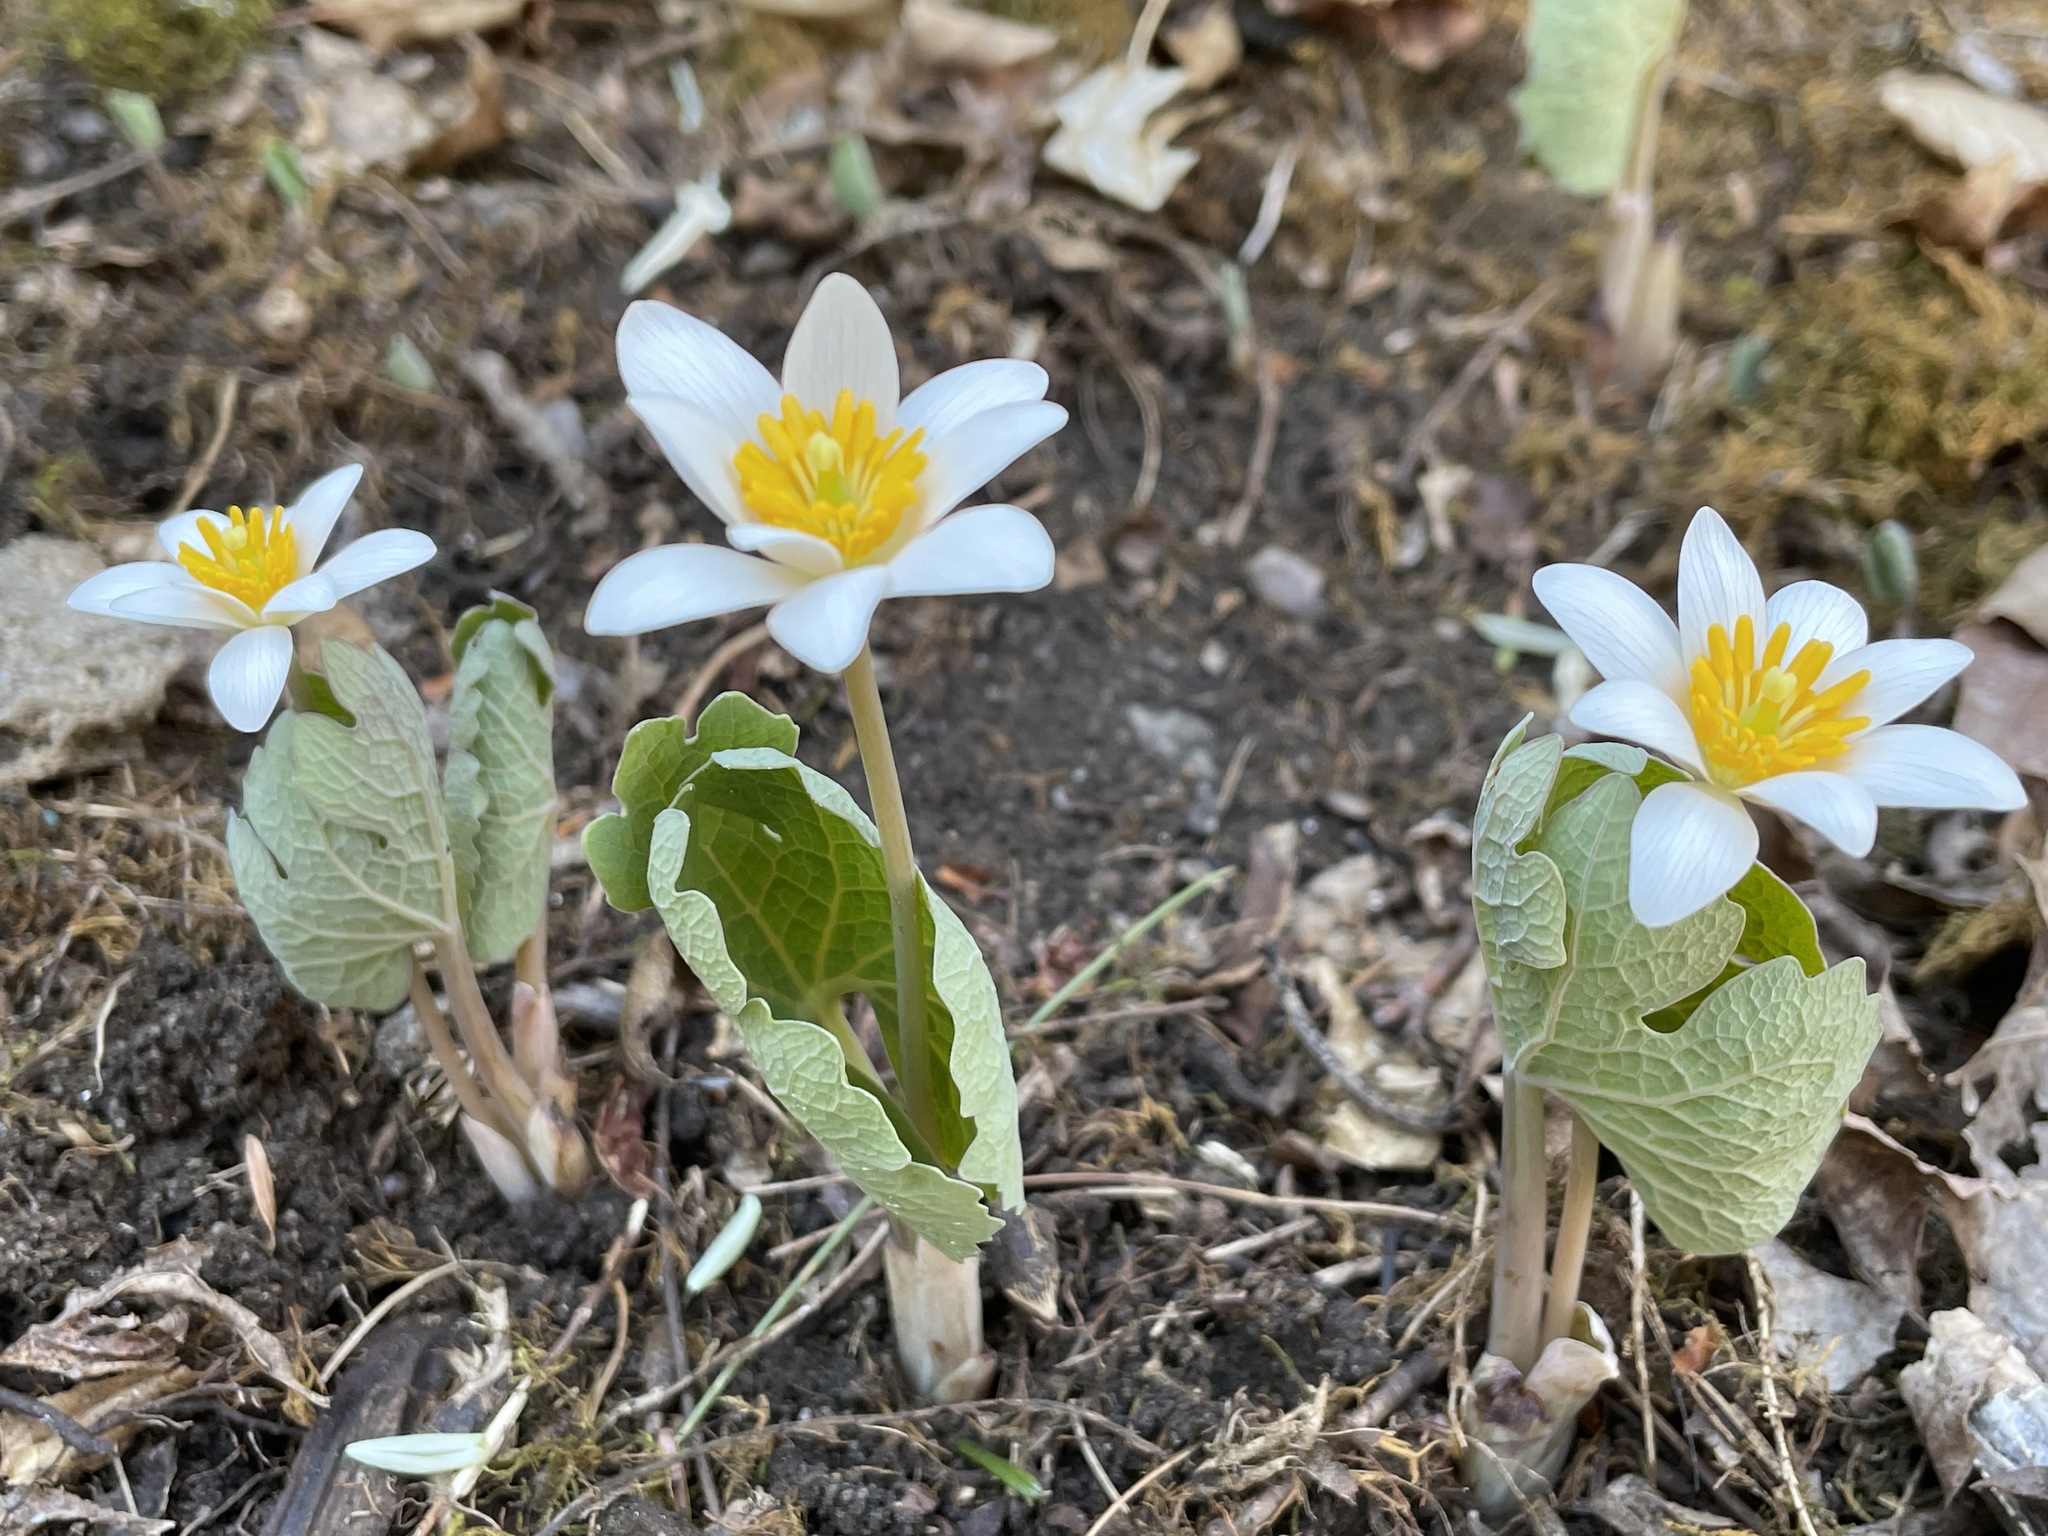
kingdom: Plantae
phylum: Tracheophyta
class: Magnoliopsida
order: Ranunculales
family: Papaveraceae
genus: Sanguinaria
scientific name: Sanguinaria canadensis
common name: Bloodroot
